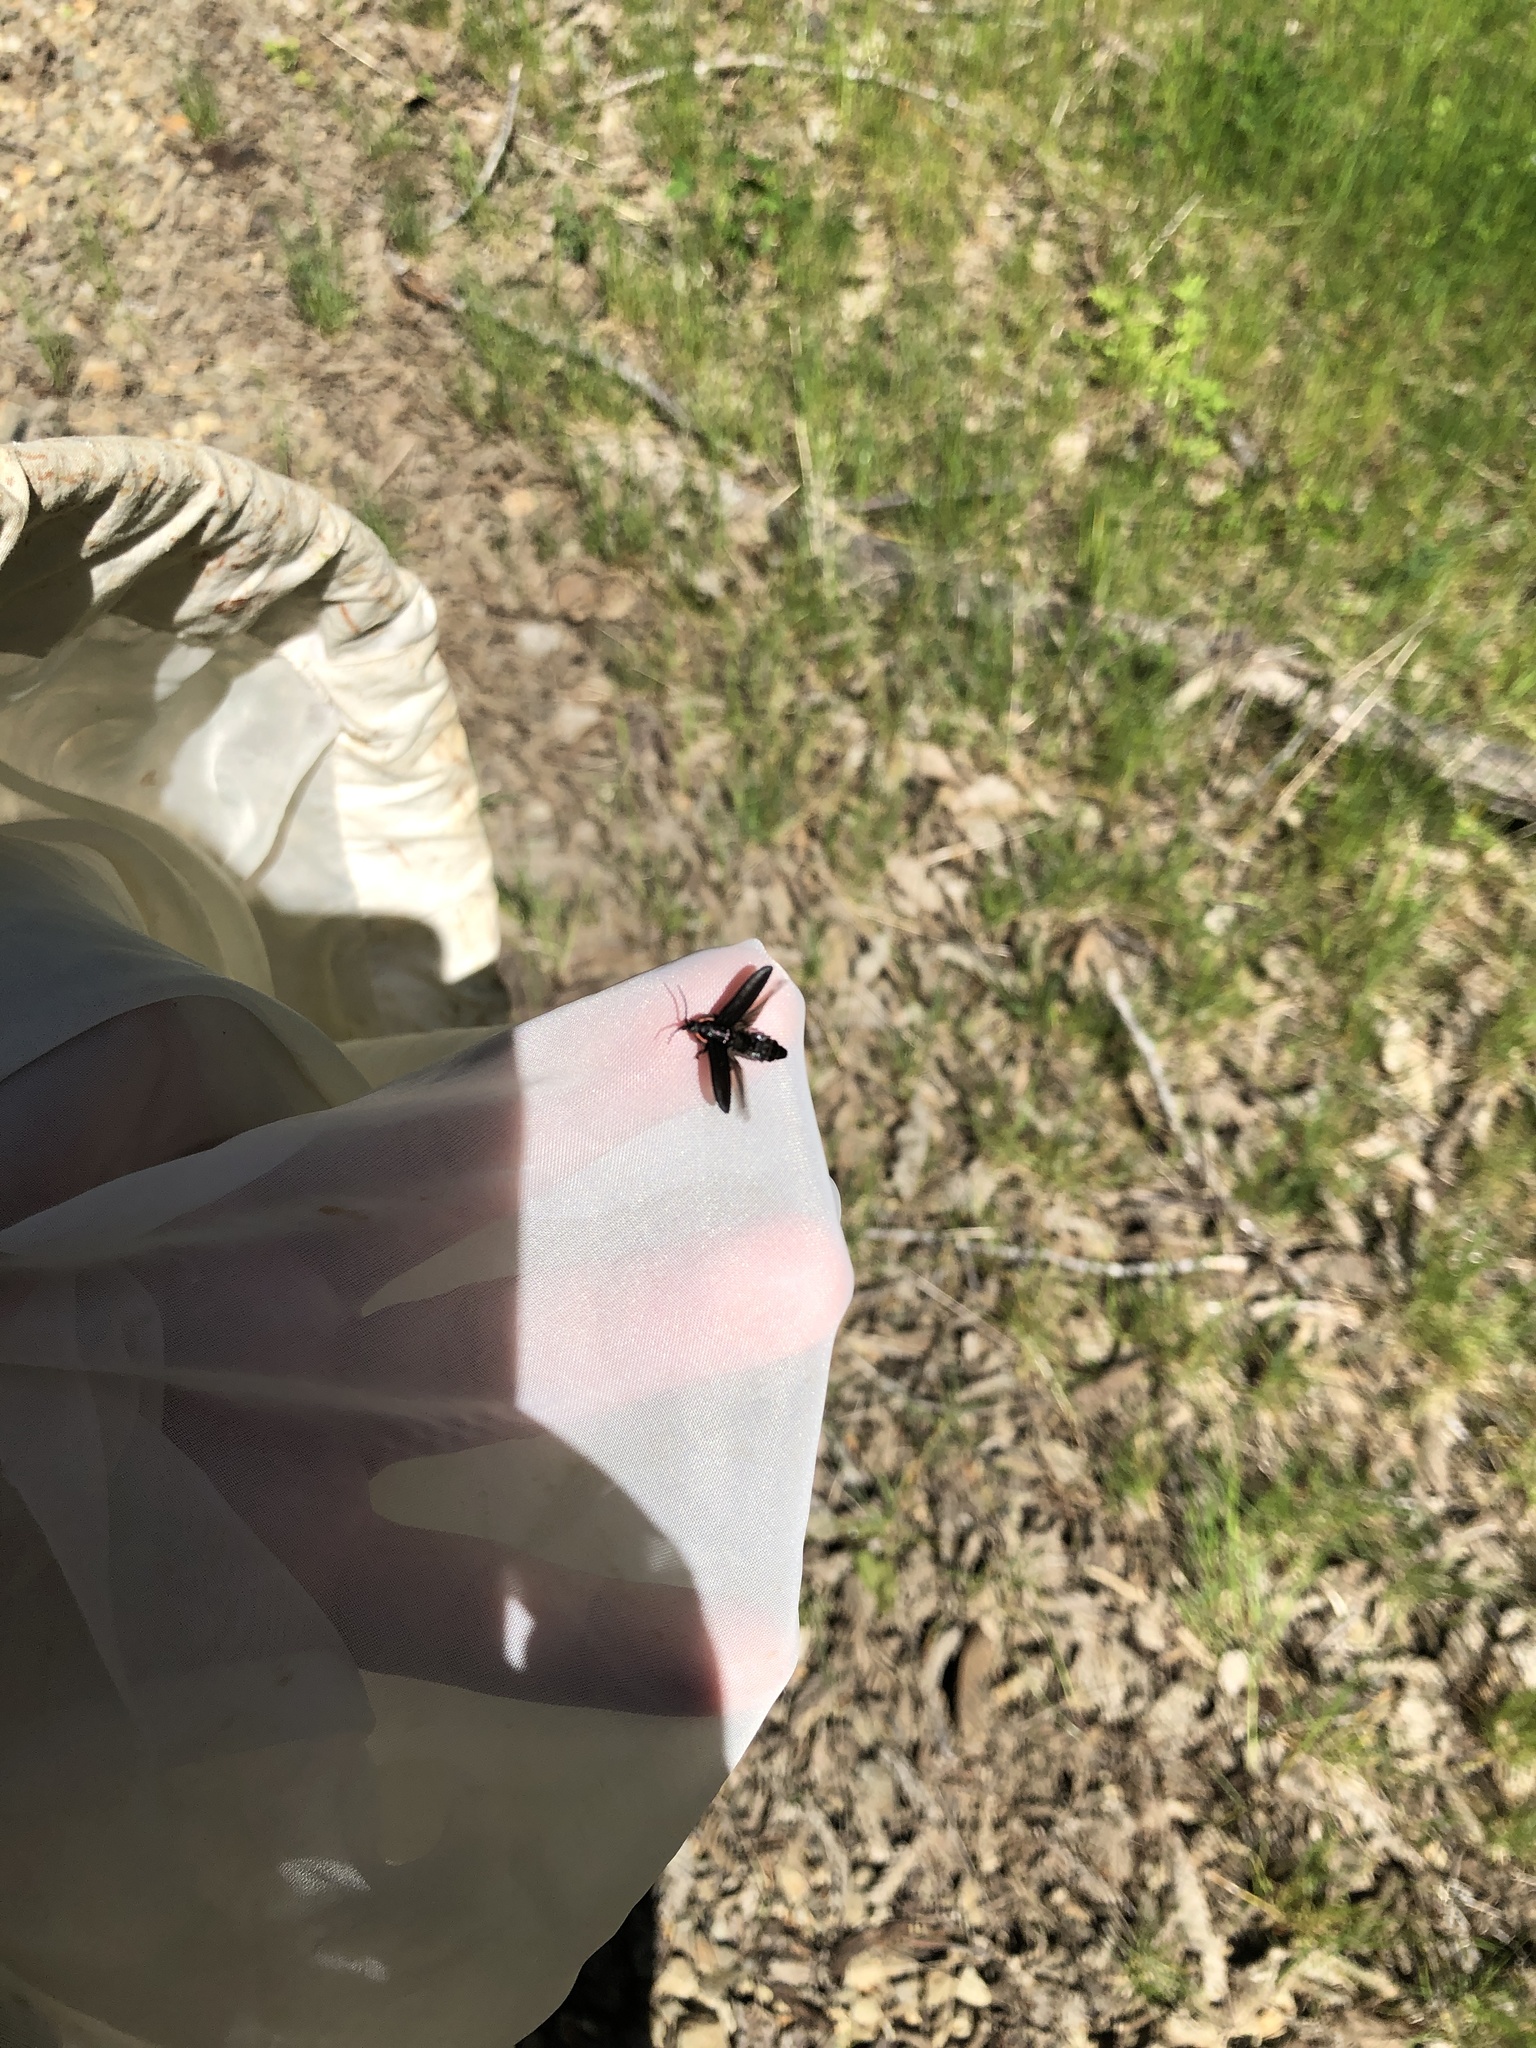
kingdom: Animalia
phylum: Arthropoda
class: Insecta
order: Coleoptera
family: Lampyridae
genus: Photinus
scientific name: Photinus hatchi
